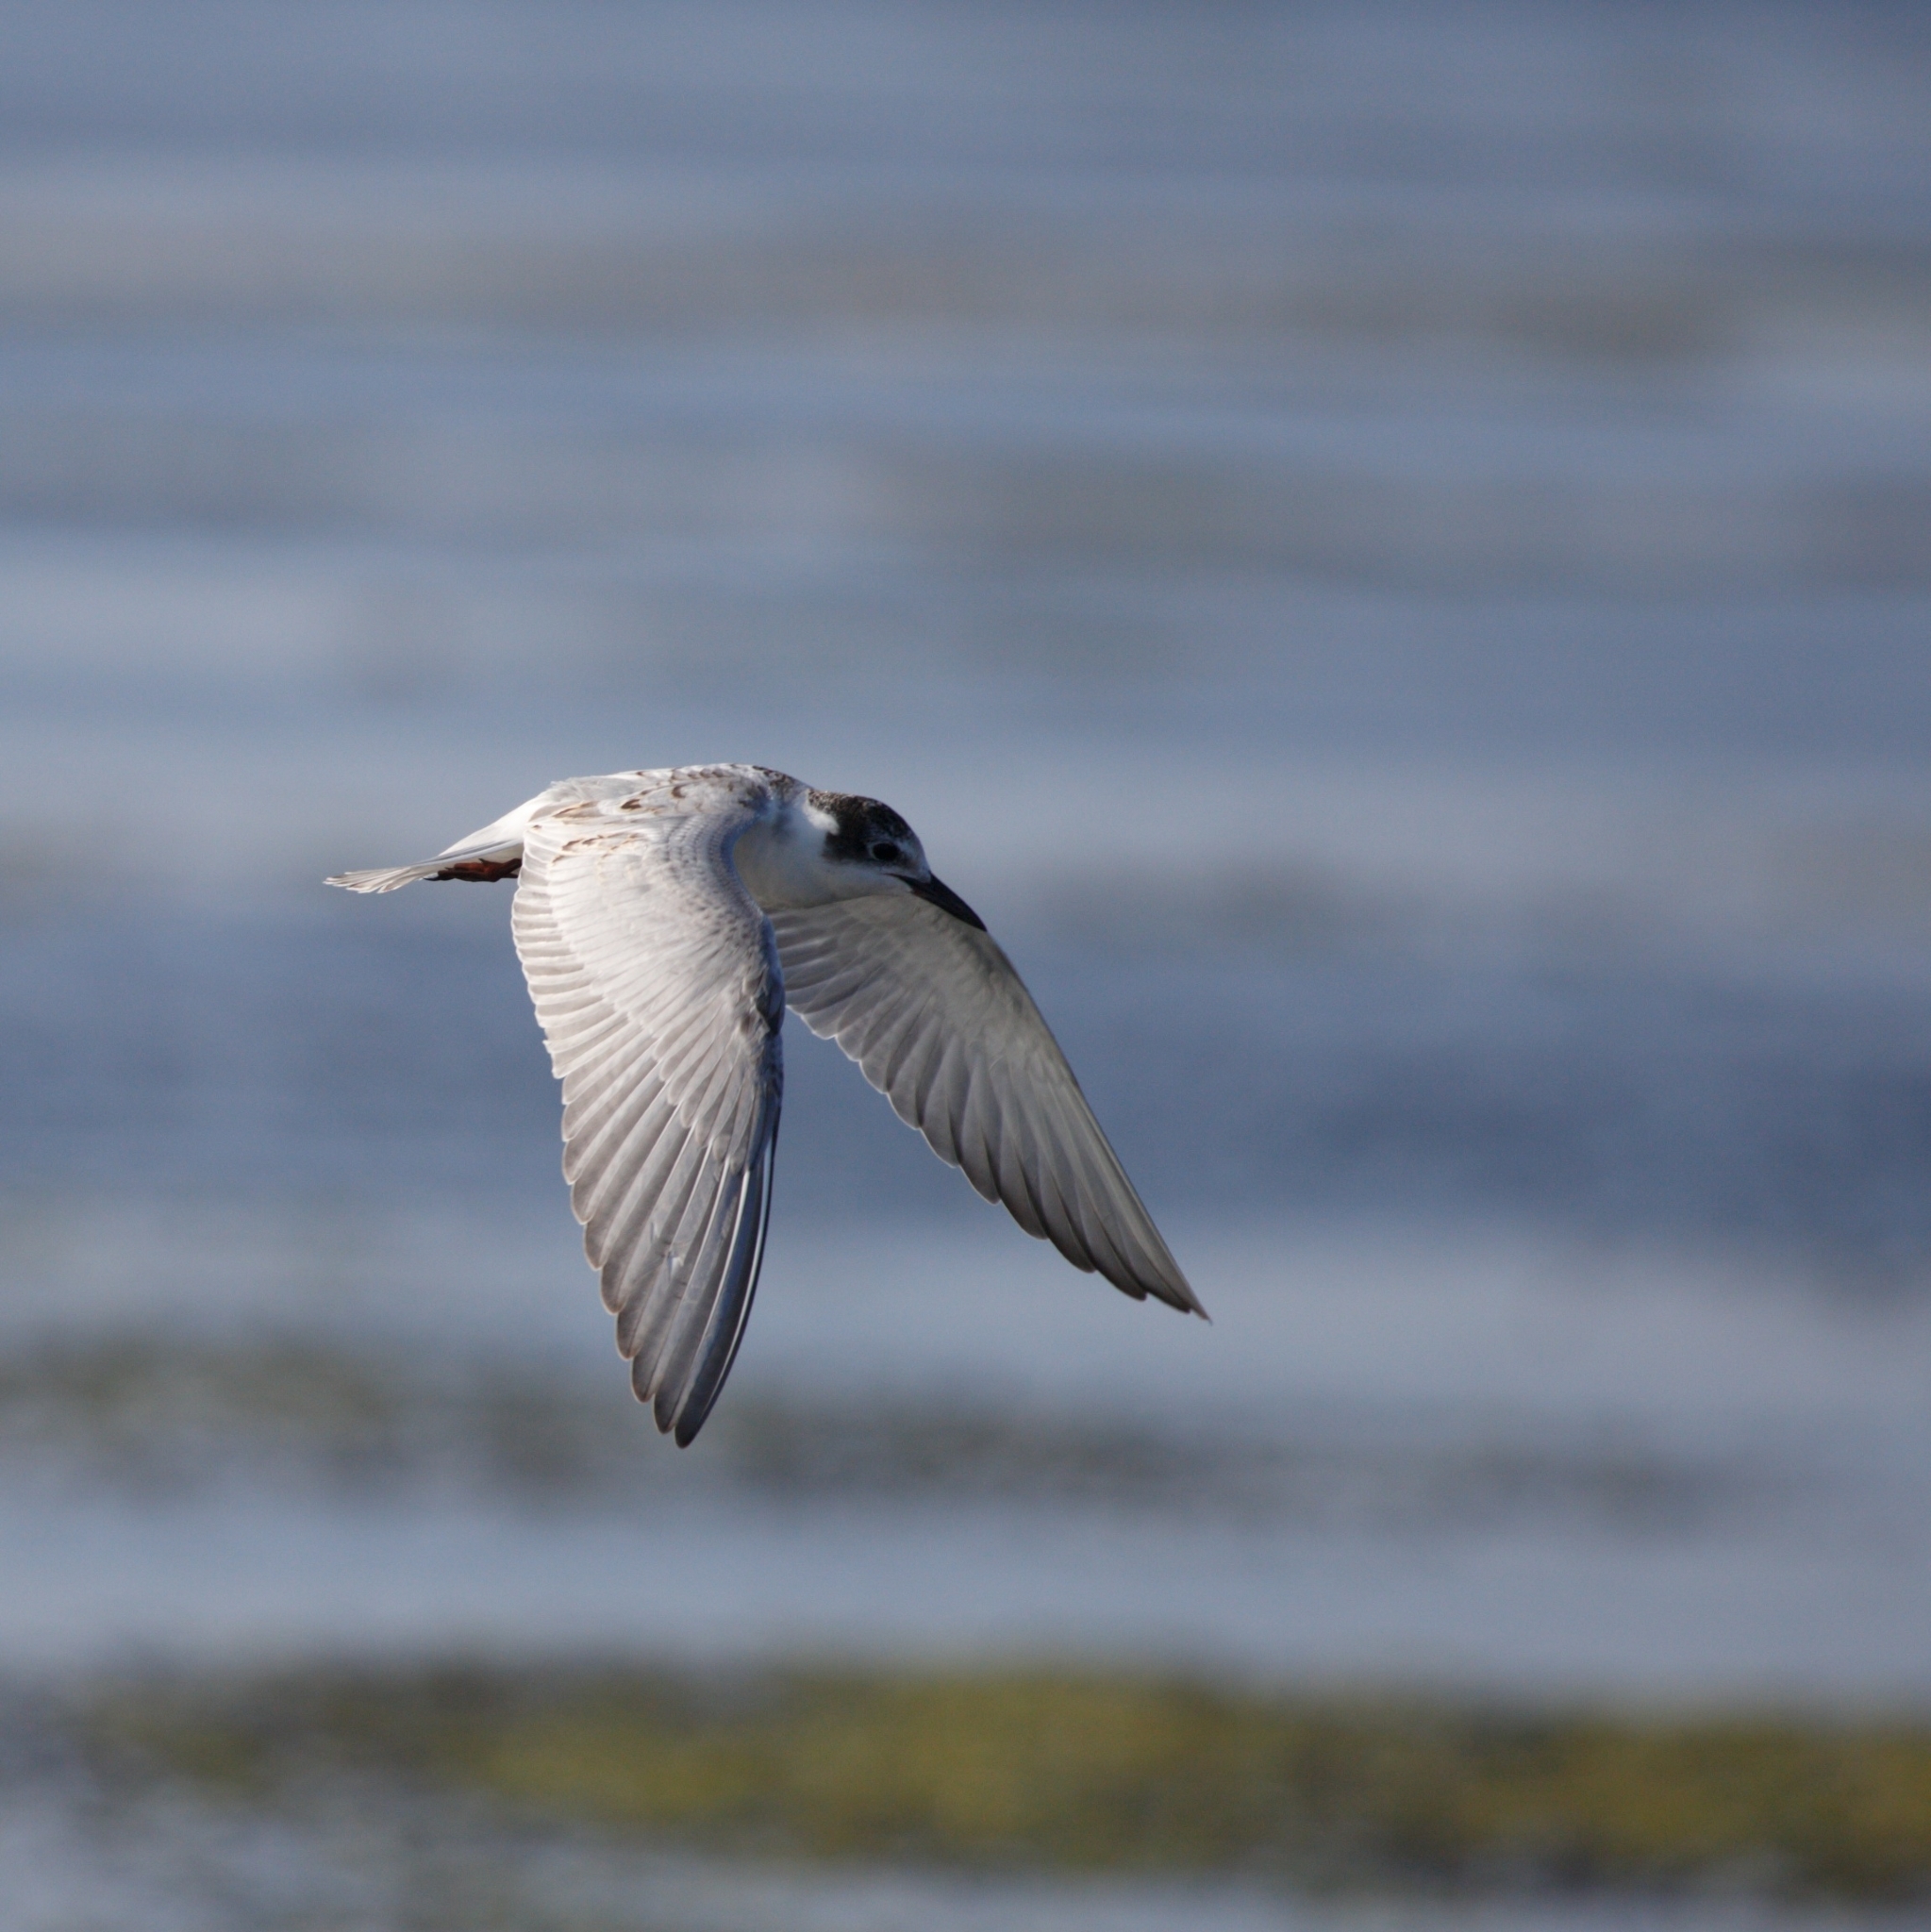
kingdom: Animalia
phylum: Chordata
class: Aves
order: Charadriiformes
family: Laridae
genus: Chlidonias
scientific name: Chlidonias hybrida
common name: Whiskered tern
